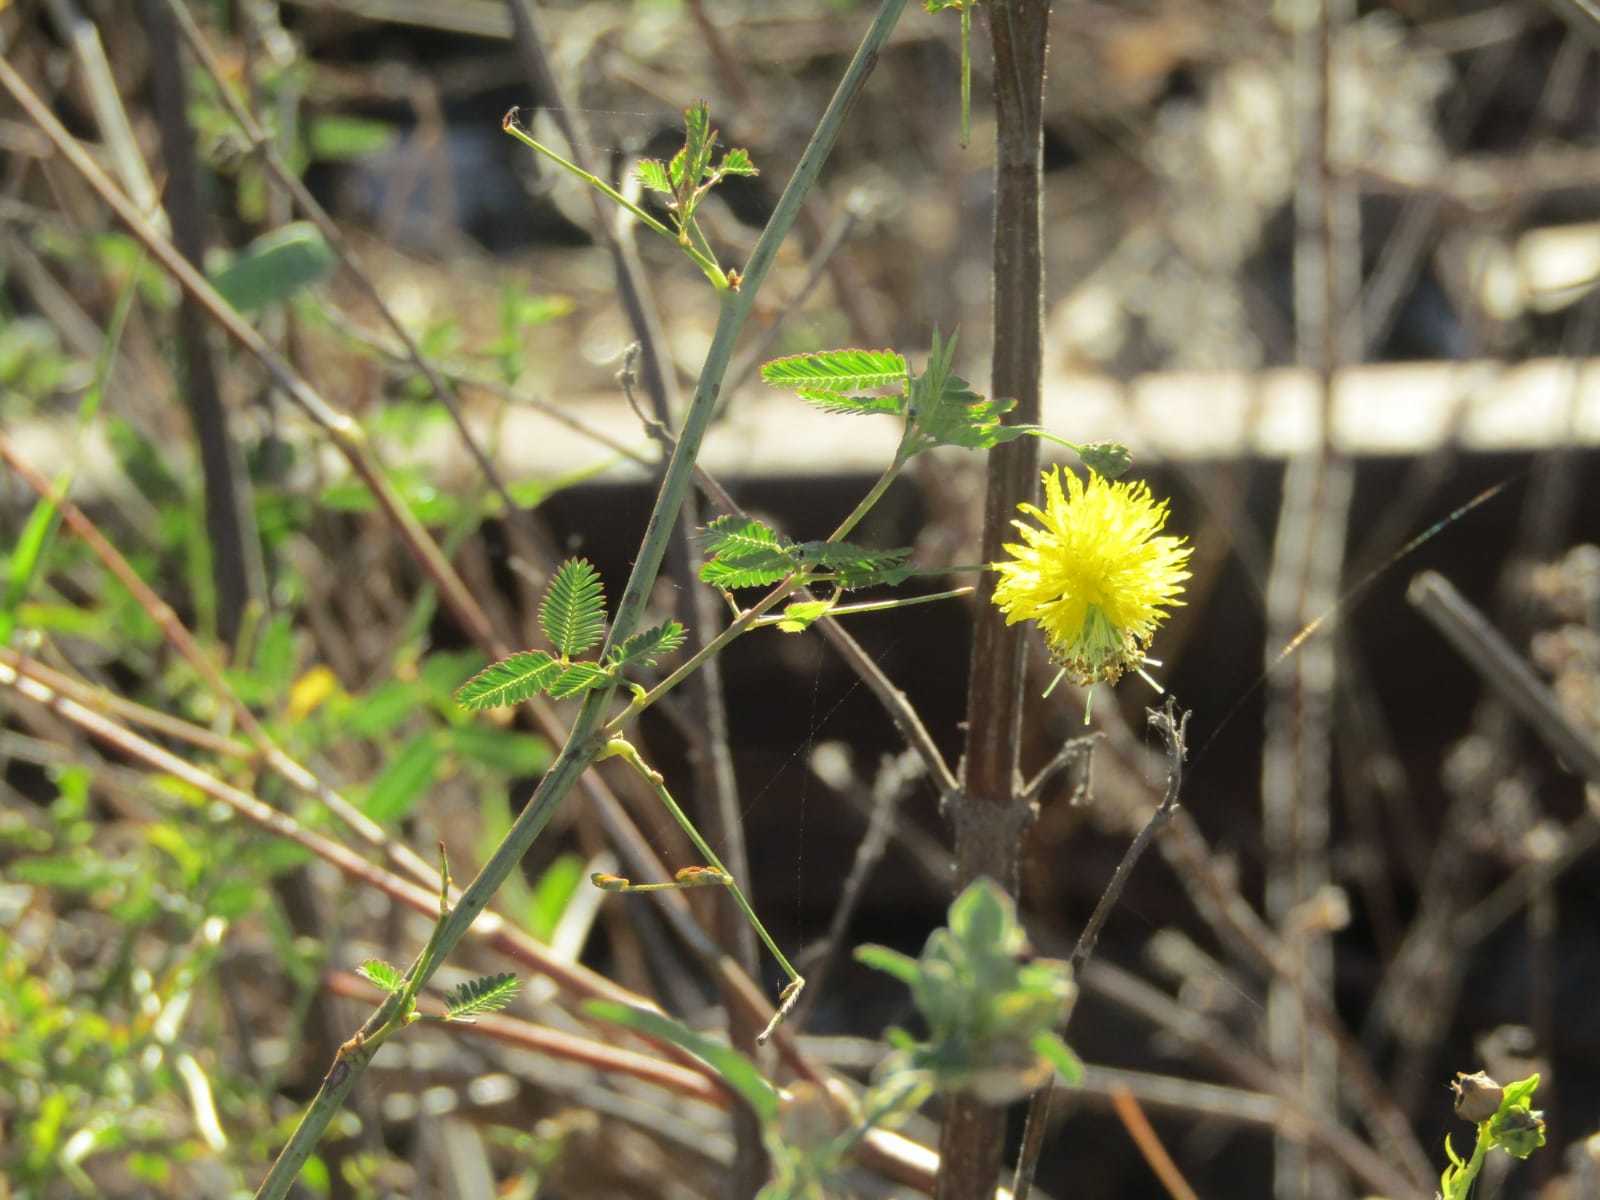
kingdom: Plantae
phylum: Tracheophyta
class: Magnoliopsida
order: Fabales
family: Fabaceae
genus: Neptunia
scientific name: Neptunia plena
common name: Dead and awake
